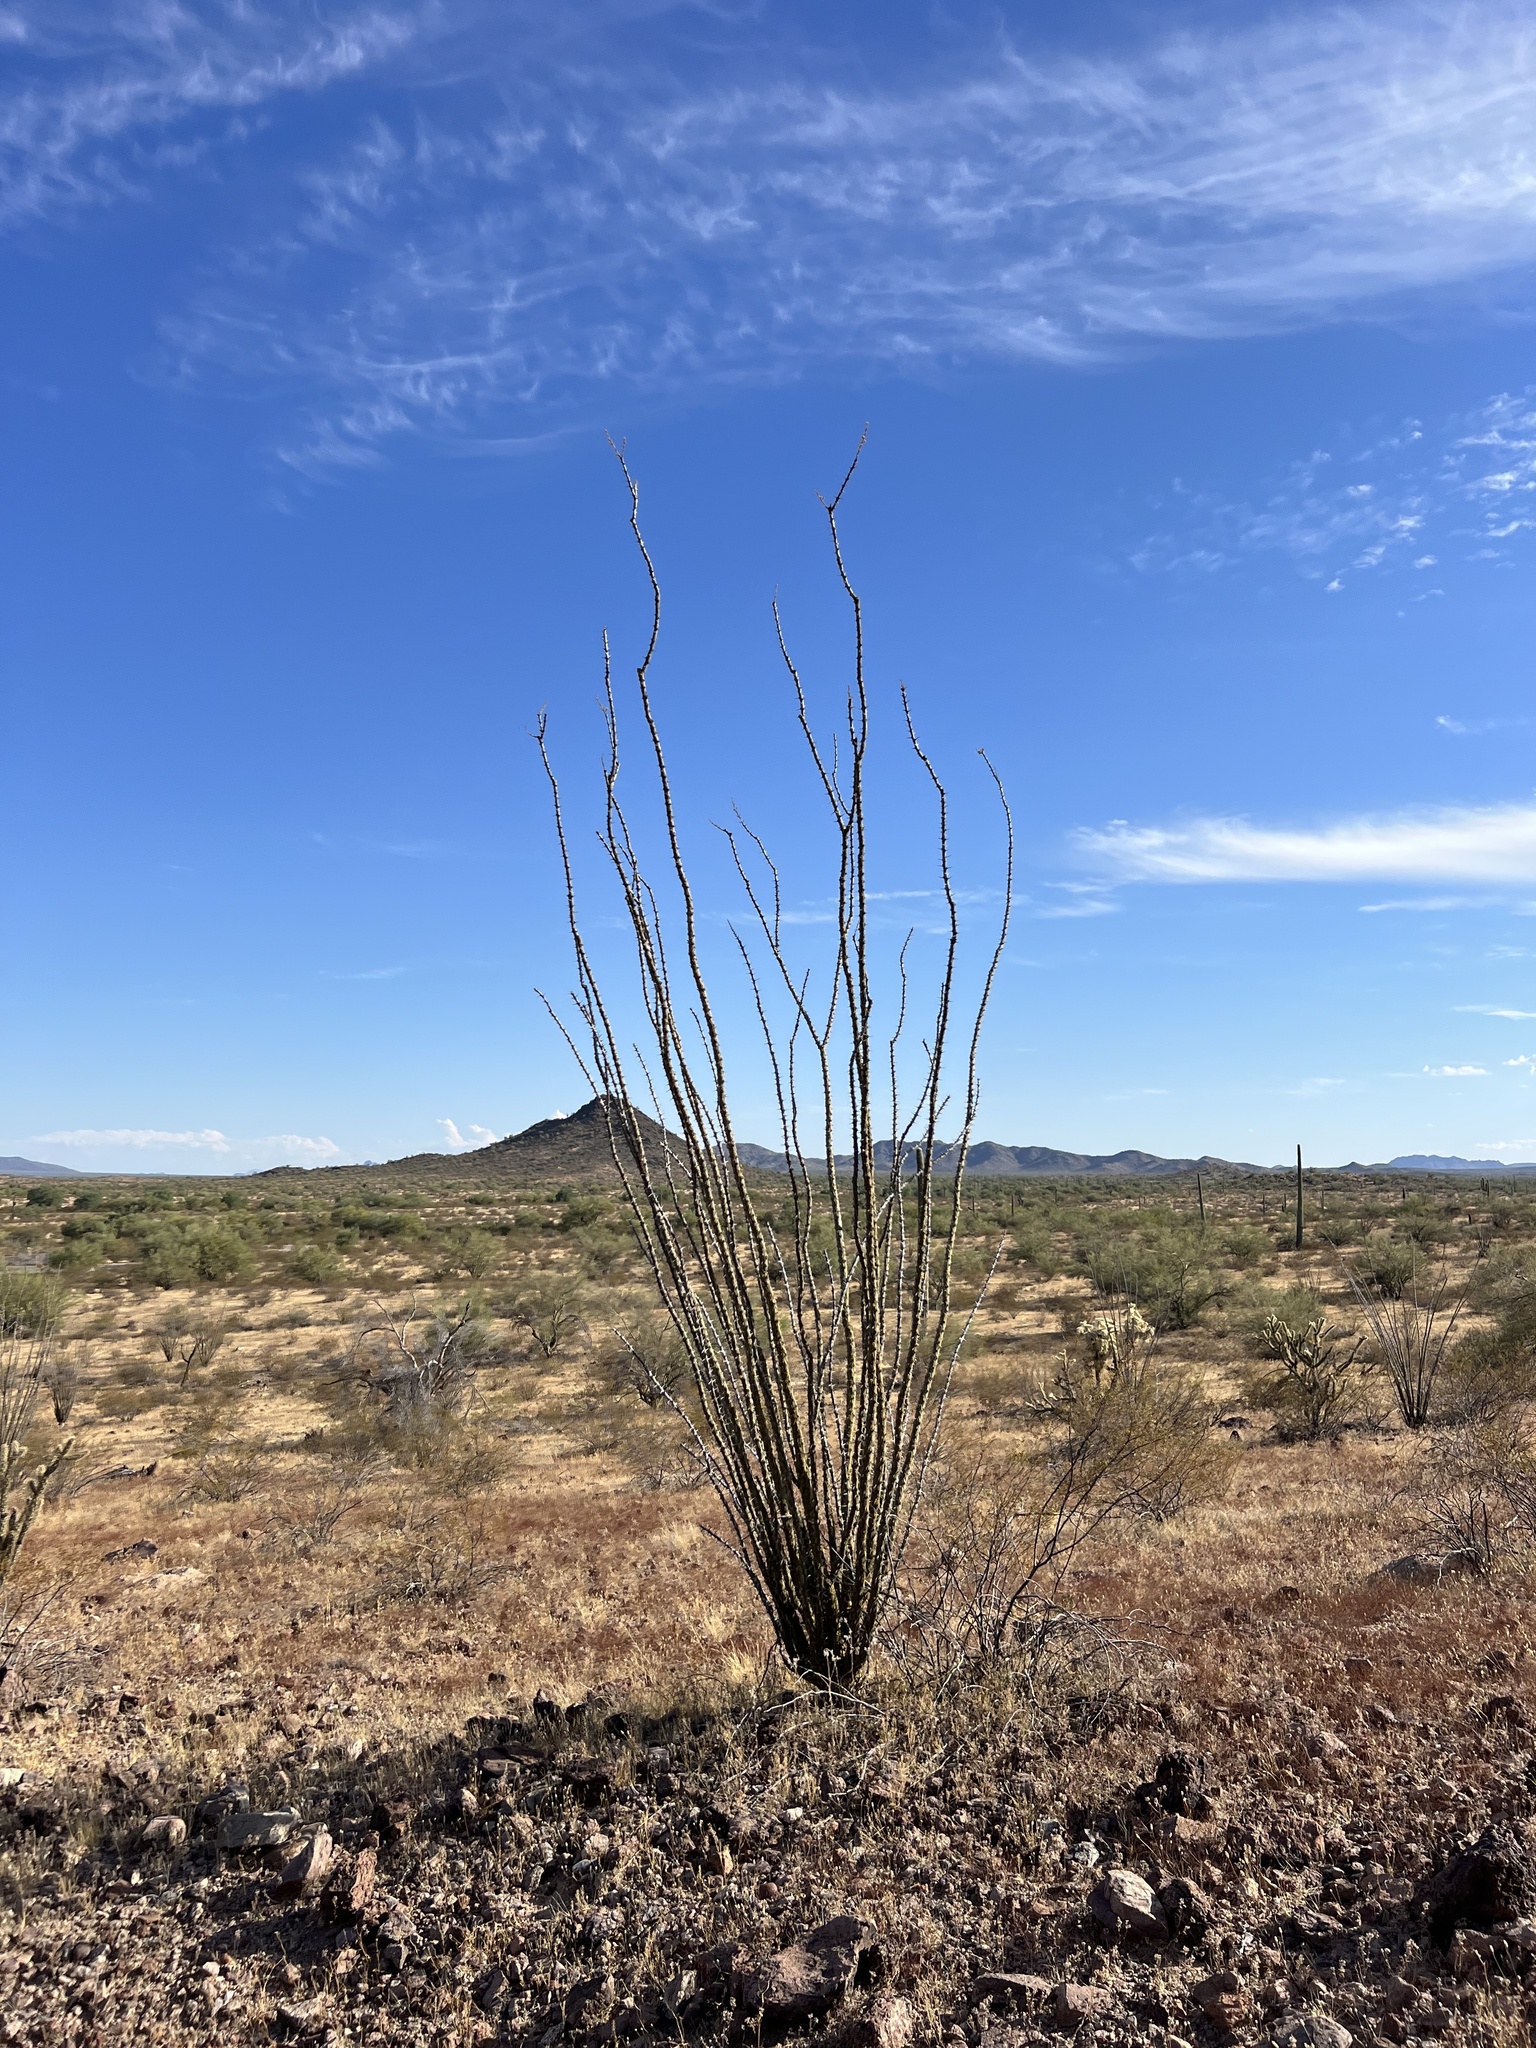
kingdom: Plantae
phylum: Tracheophyta
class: Magnoliopsida
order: Ericales
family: Fouquieriaceae
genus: Fouquieria
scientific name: Fouquieria splendens
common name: Vine-cactus
